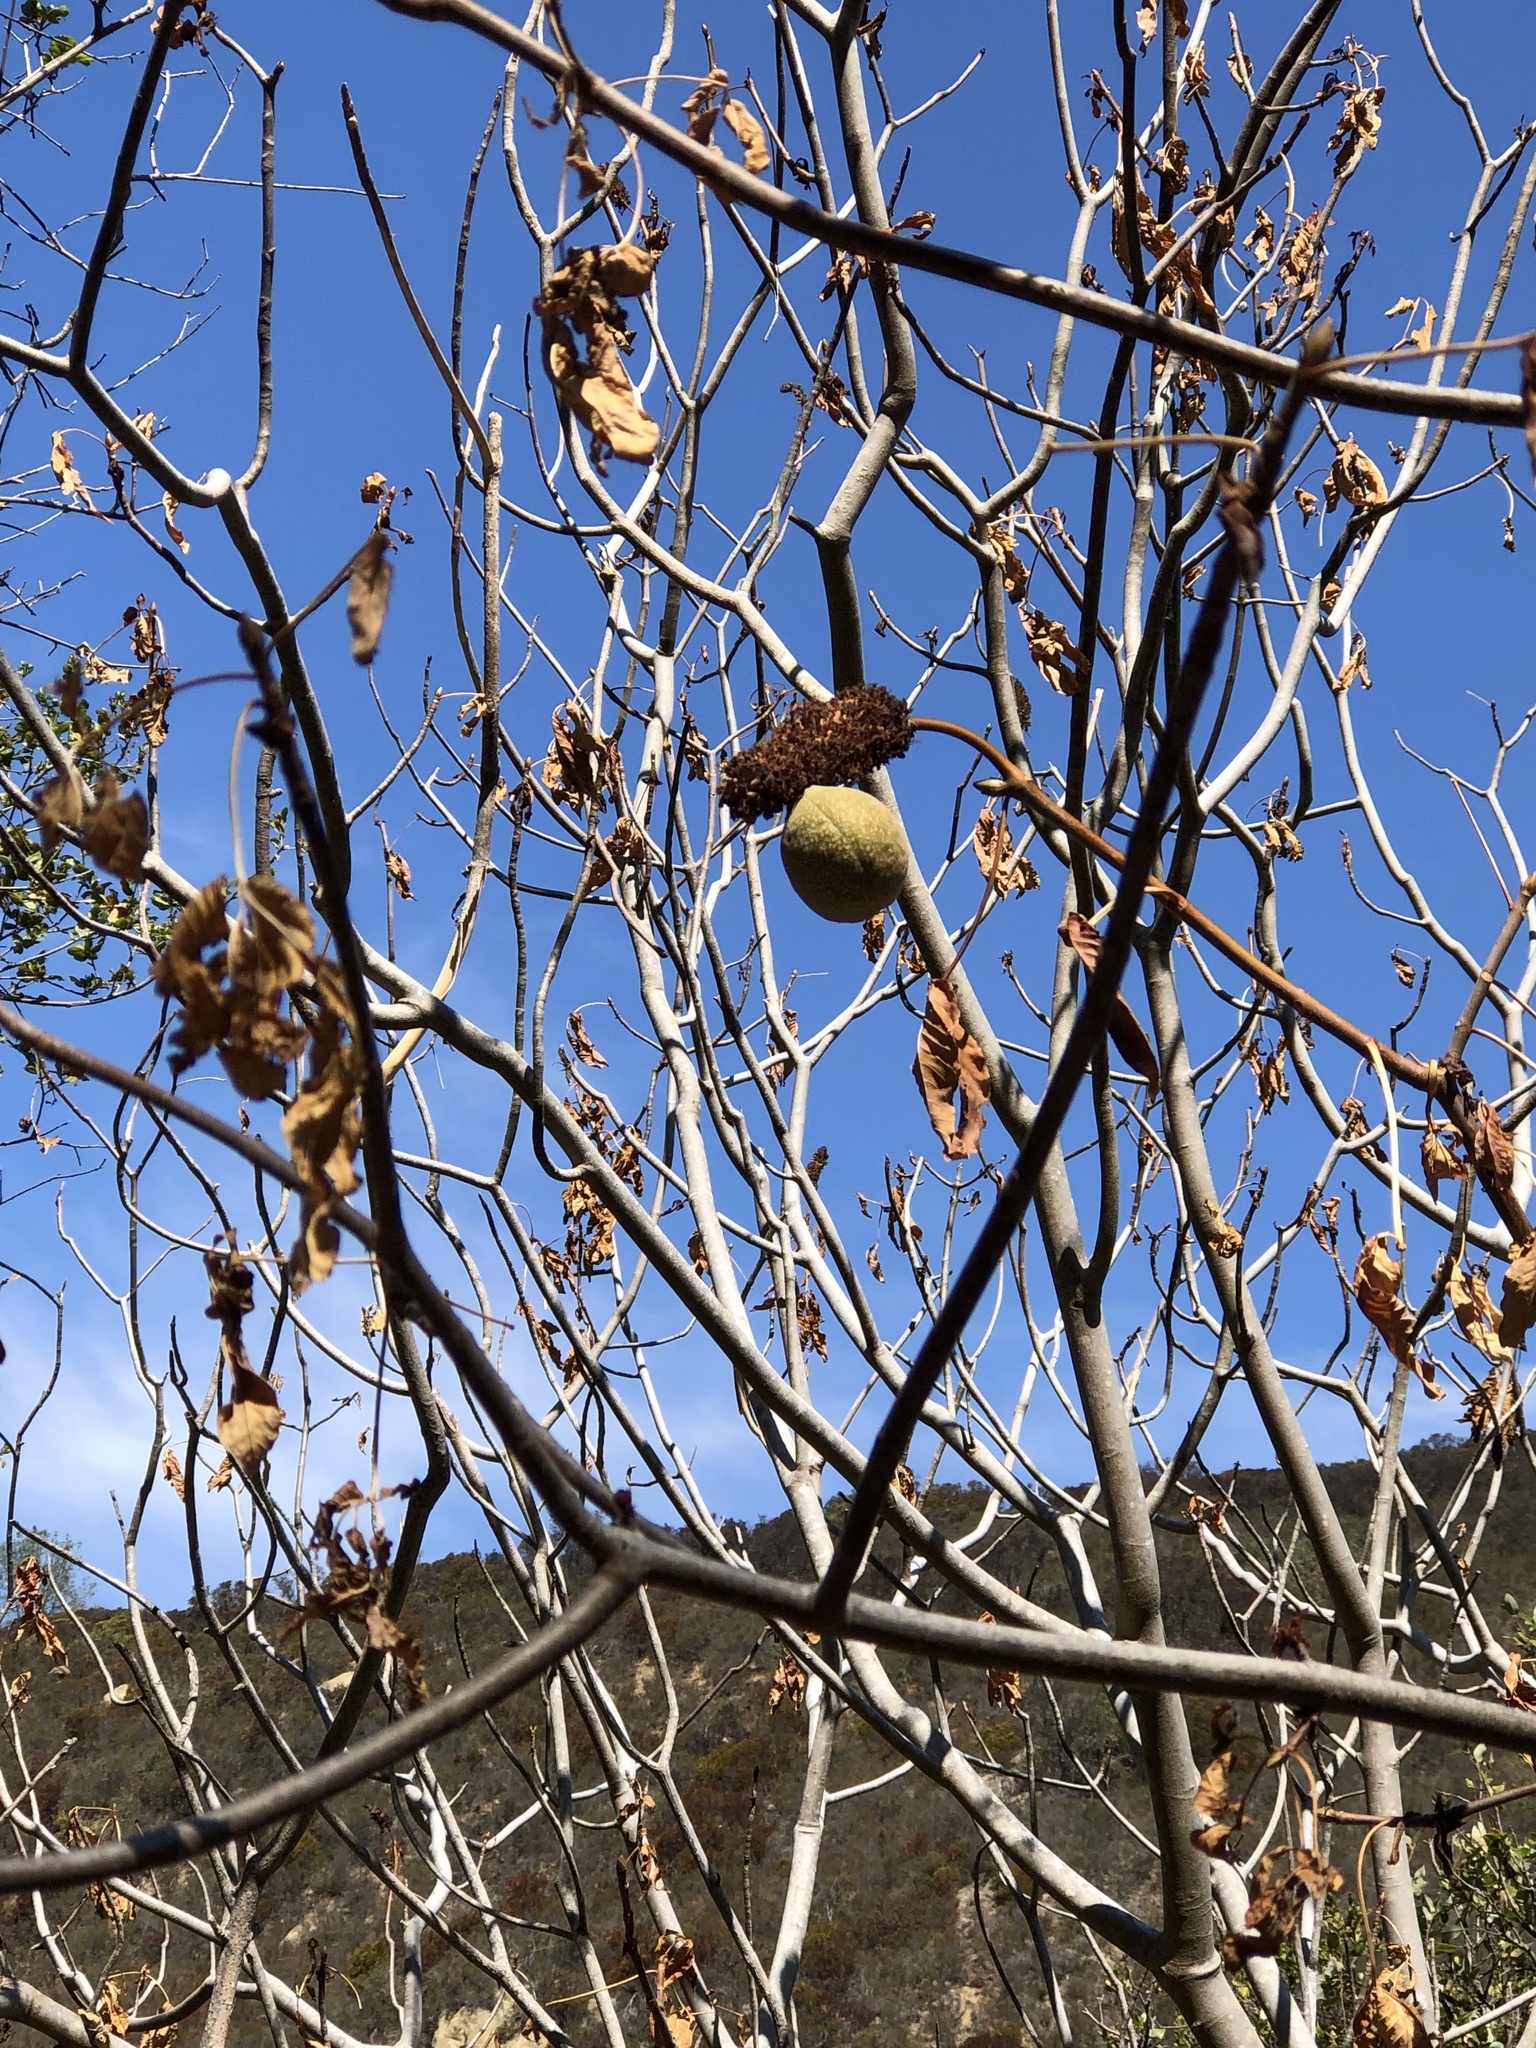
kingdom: Plantae
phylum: Tracheophyta
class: Magnoliopsida
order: Sapindales
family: Sapindaceae
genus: Aesculus
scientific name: Aesculus californica
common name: California buckeye
